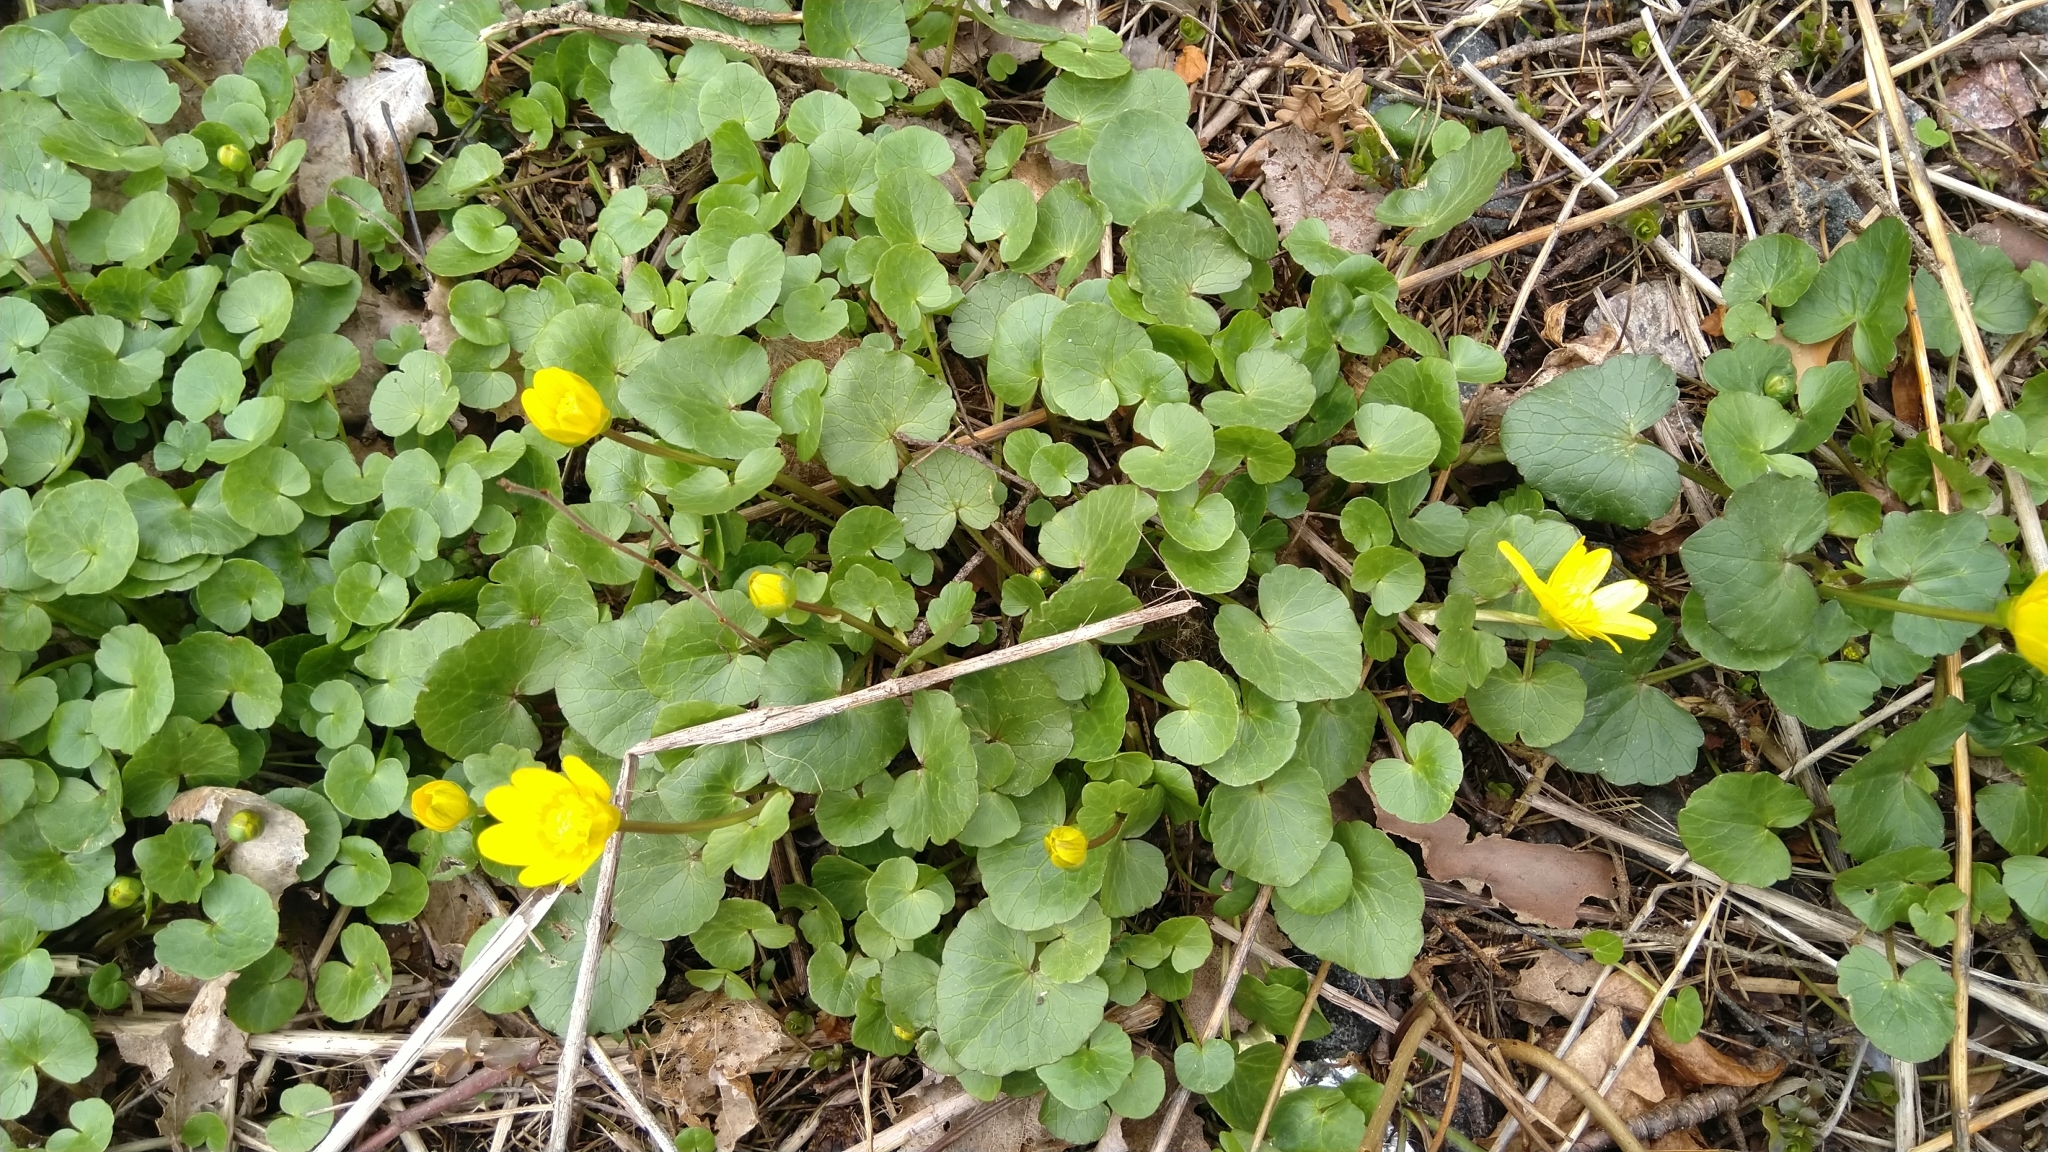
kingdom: Plantae
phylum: Tracheophyta
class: Magnoliopsida
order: Ranunculales
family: Ranunculaceae
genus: Ficaria
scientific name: Ficaria verna
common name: Lesser celandine
